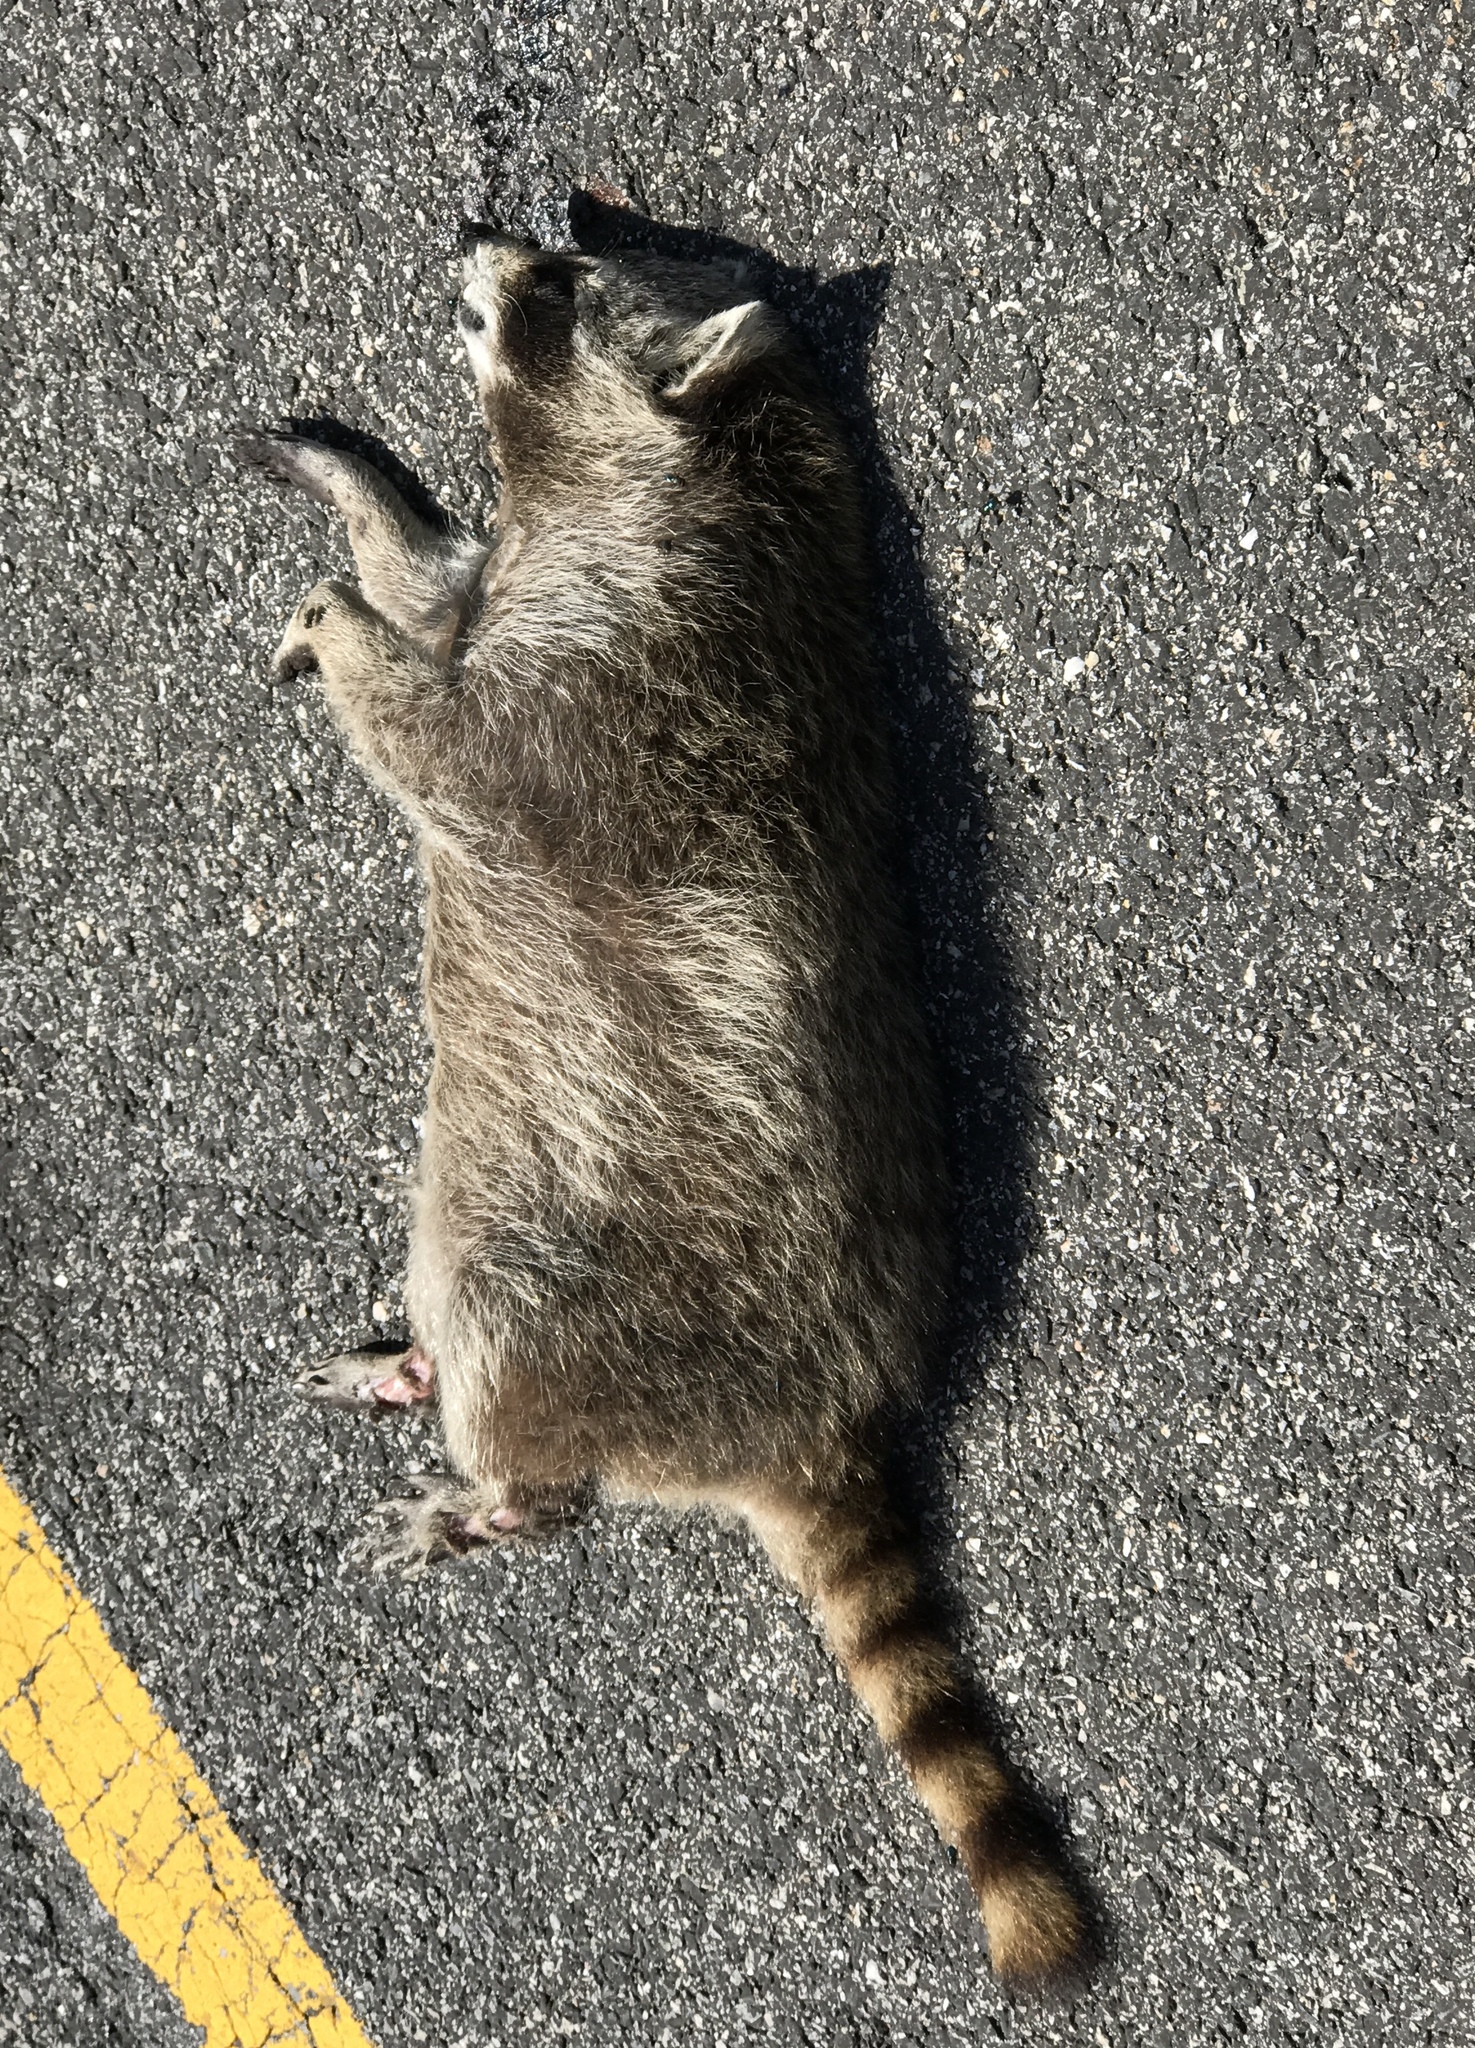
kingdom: Animalia
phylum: Chordata
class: Mammalia
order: Carnivora
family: Procyonidae
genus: Procyon
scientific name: Procyon lotor
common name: Raccoon
